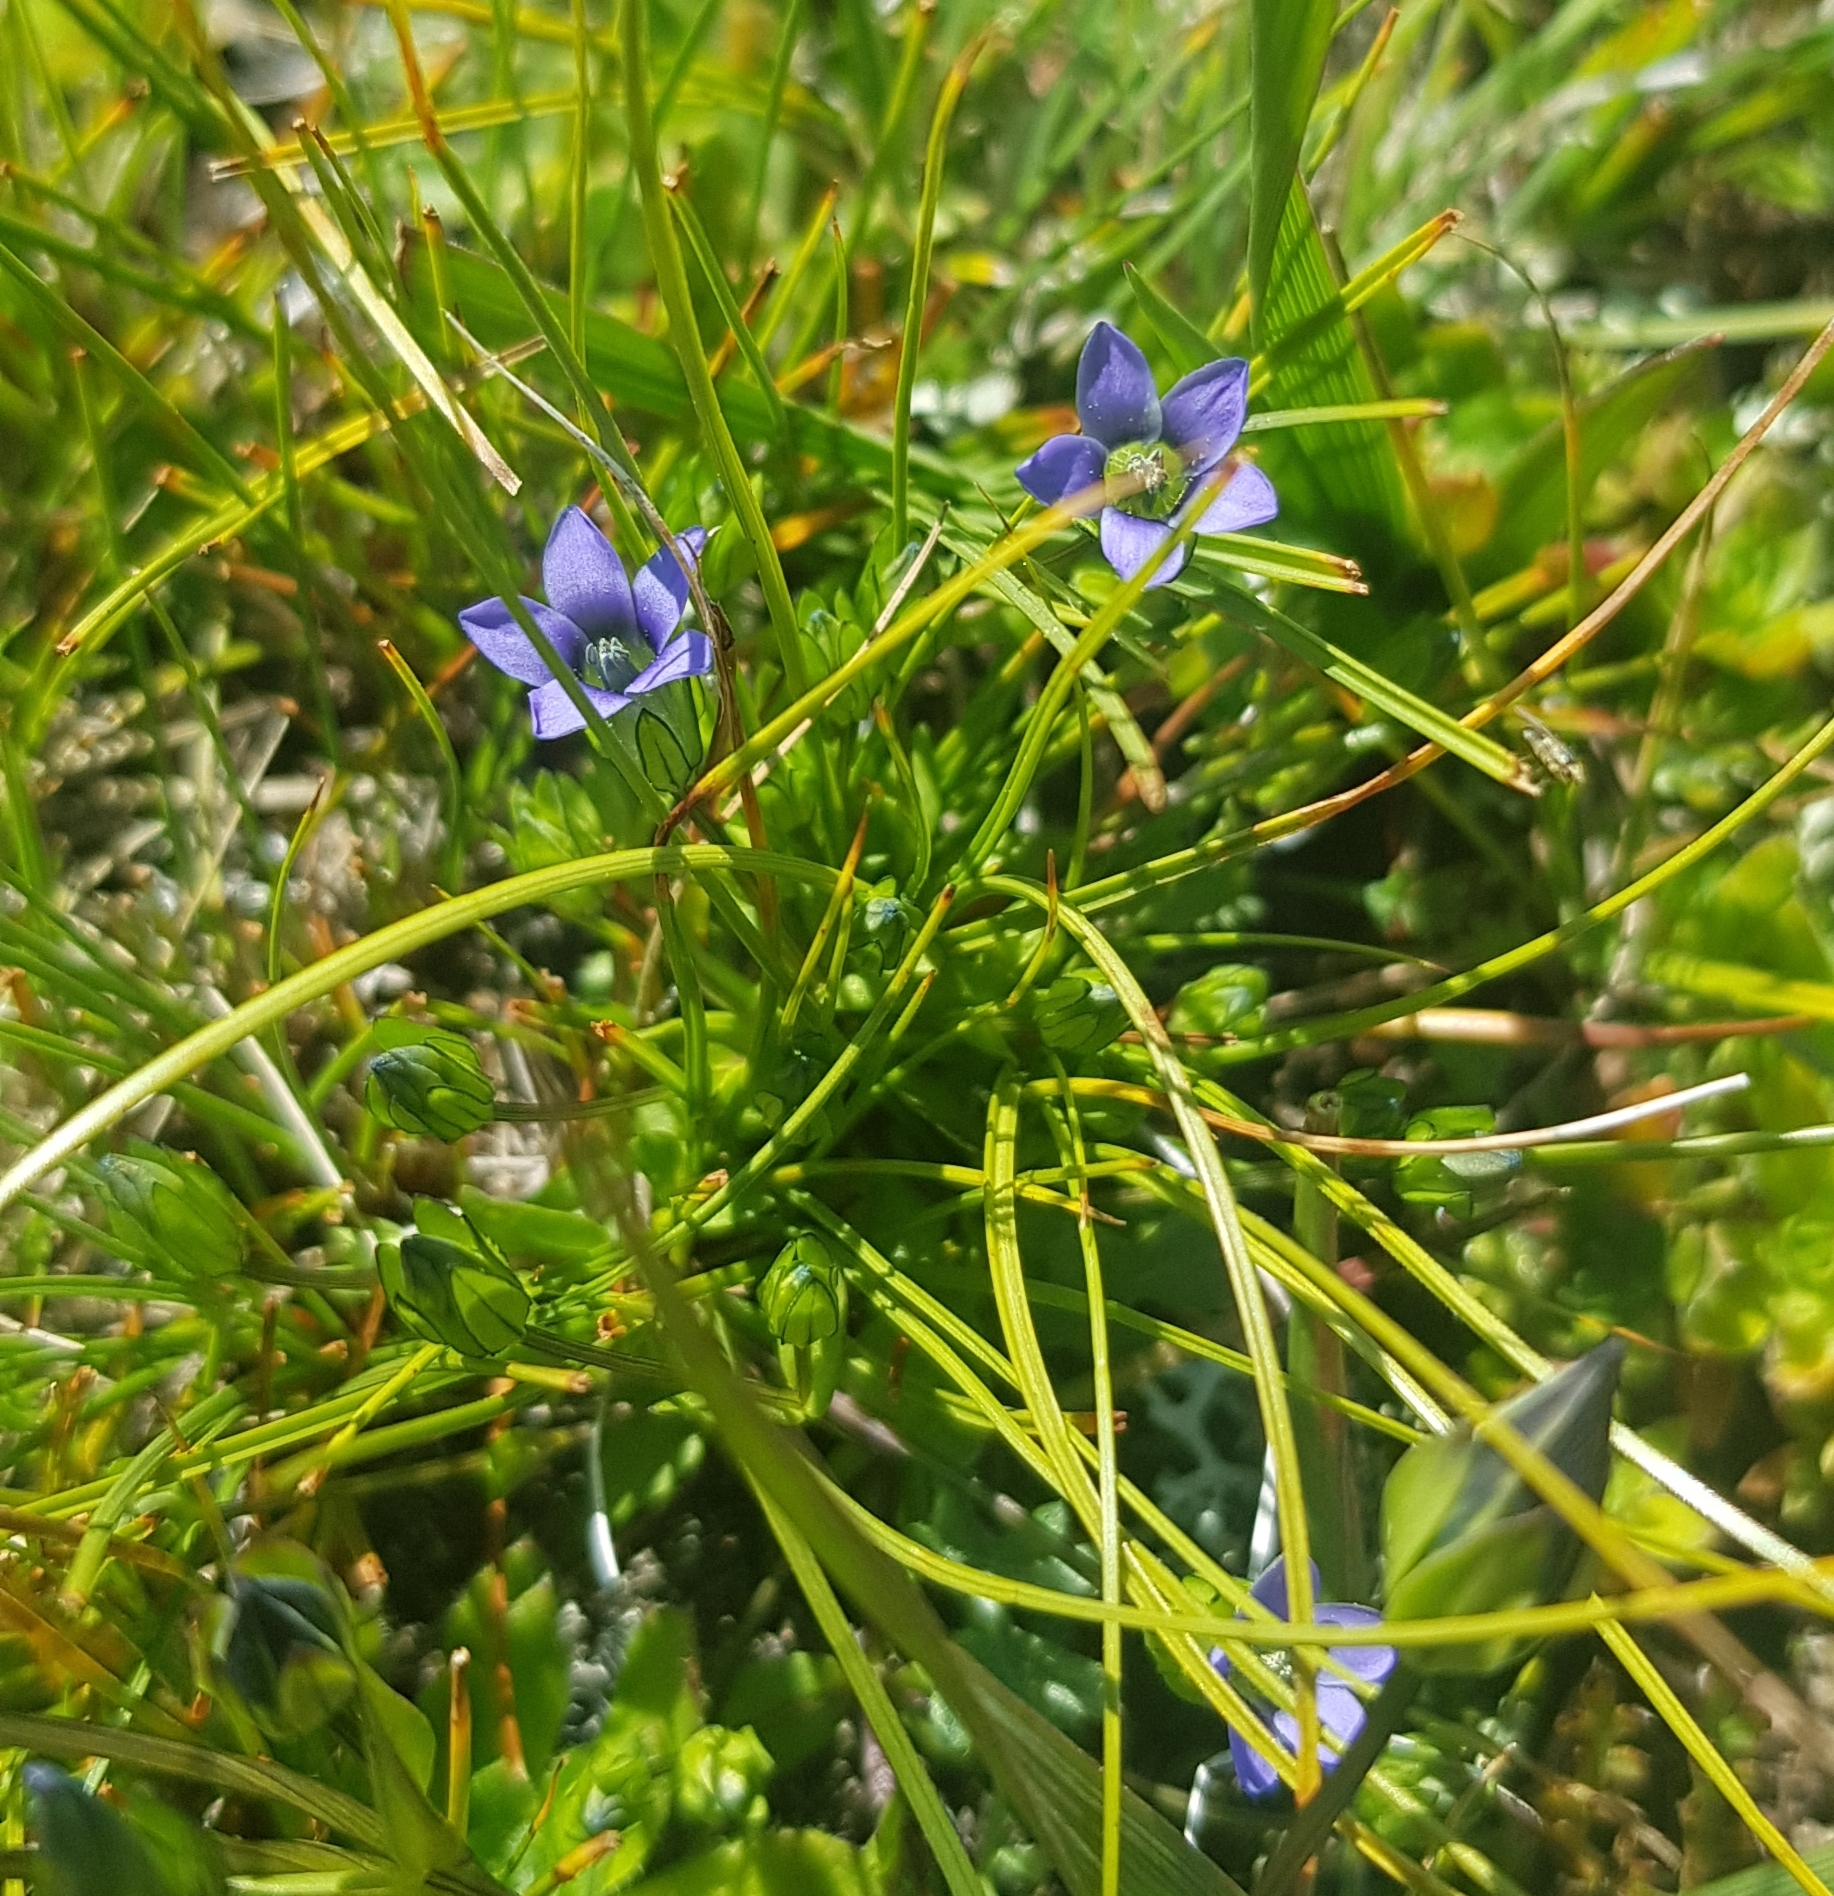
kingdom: Plantae
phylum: Tracheophyta
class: Magnoliopsida
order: Gentianales
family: Gentianaceae
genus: Gentiana
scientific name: Gentiana prostrata
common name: Moss gentian
